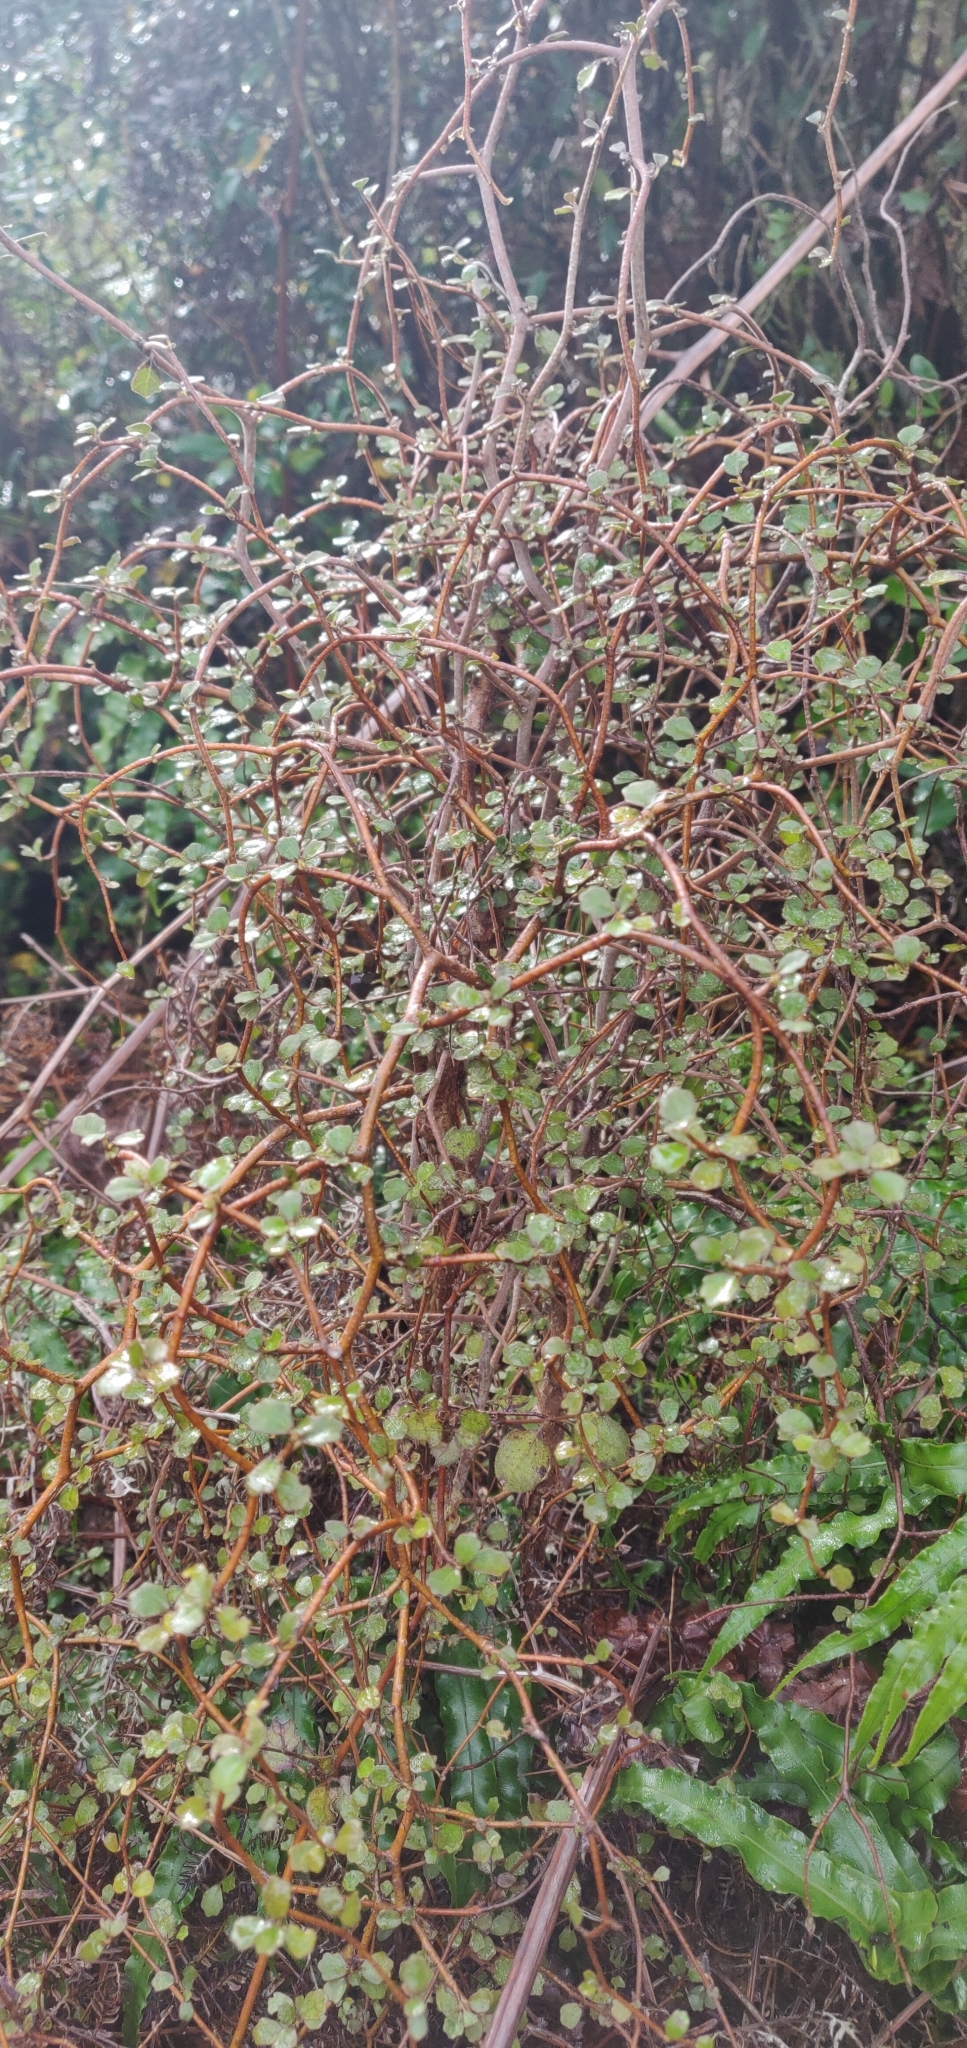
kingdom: Plantae
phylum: Tracheophyta
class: Magnoliopsida
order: Apiales
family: Pennantiaceae
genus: Pennantia
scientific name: Pennantia corymbosa
